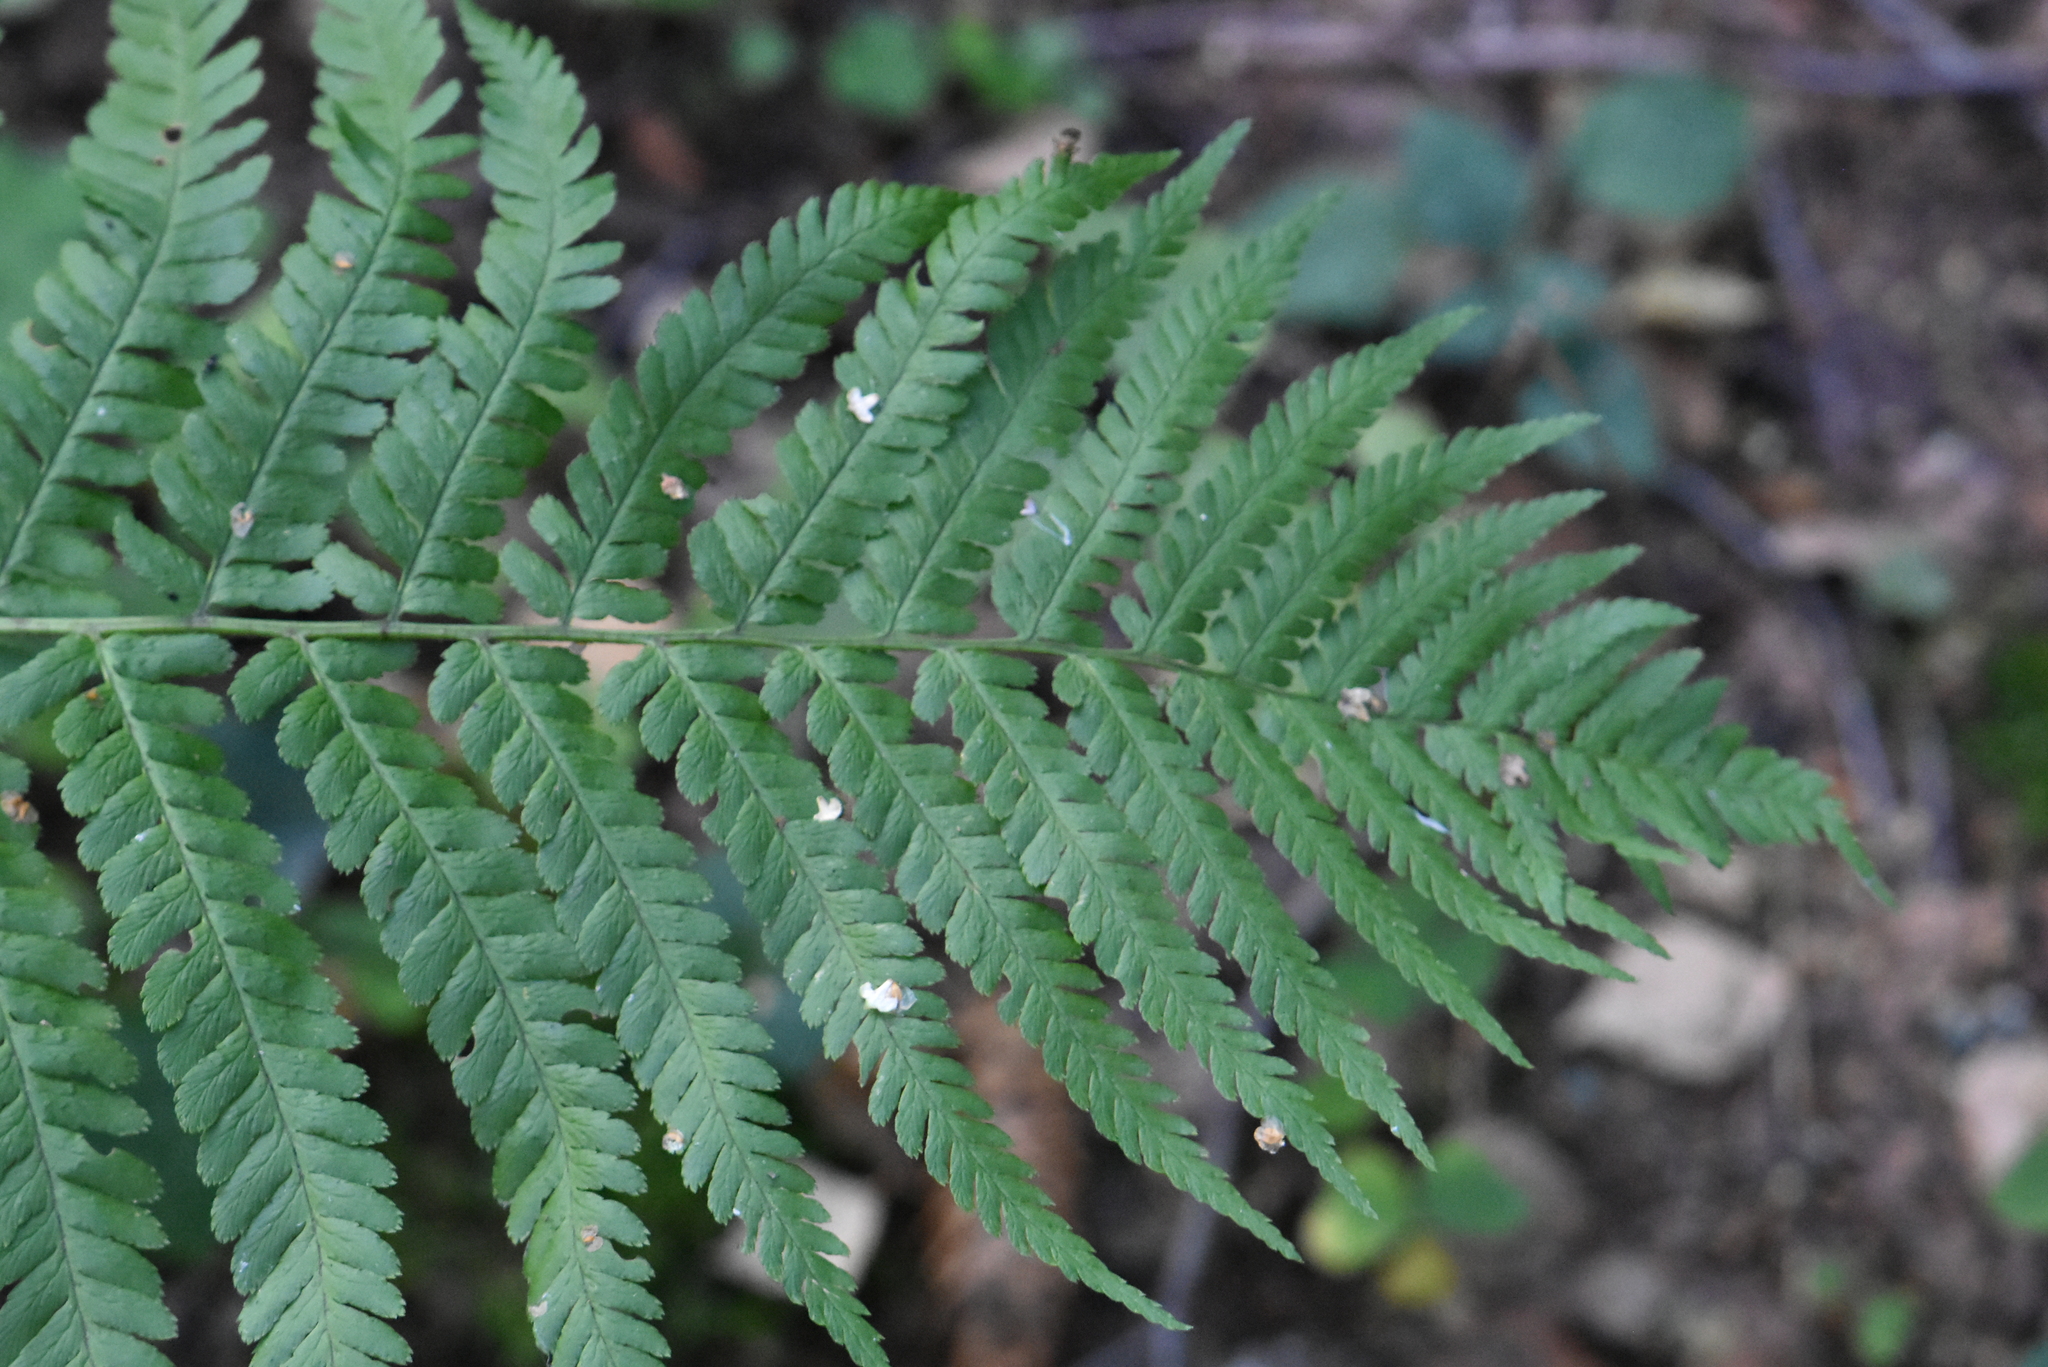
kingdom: Plantae
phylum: Tracheophyta
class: Polypodiopsida
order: Polypodiales
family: Dryopteridaceae
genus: Dryopteris
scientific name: Dryopteris filix-mas
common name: Male fern
